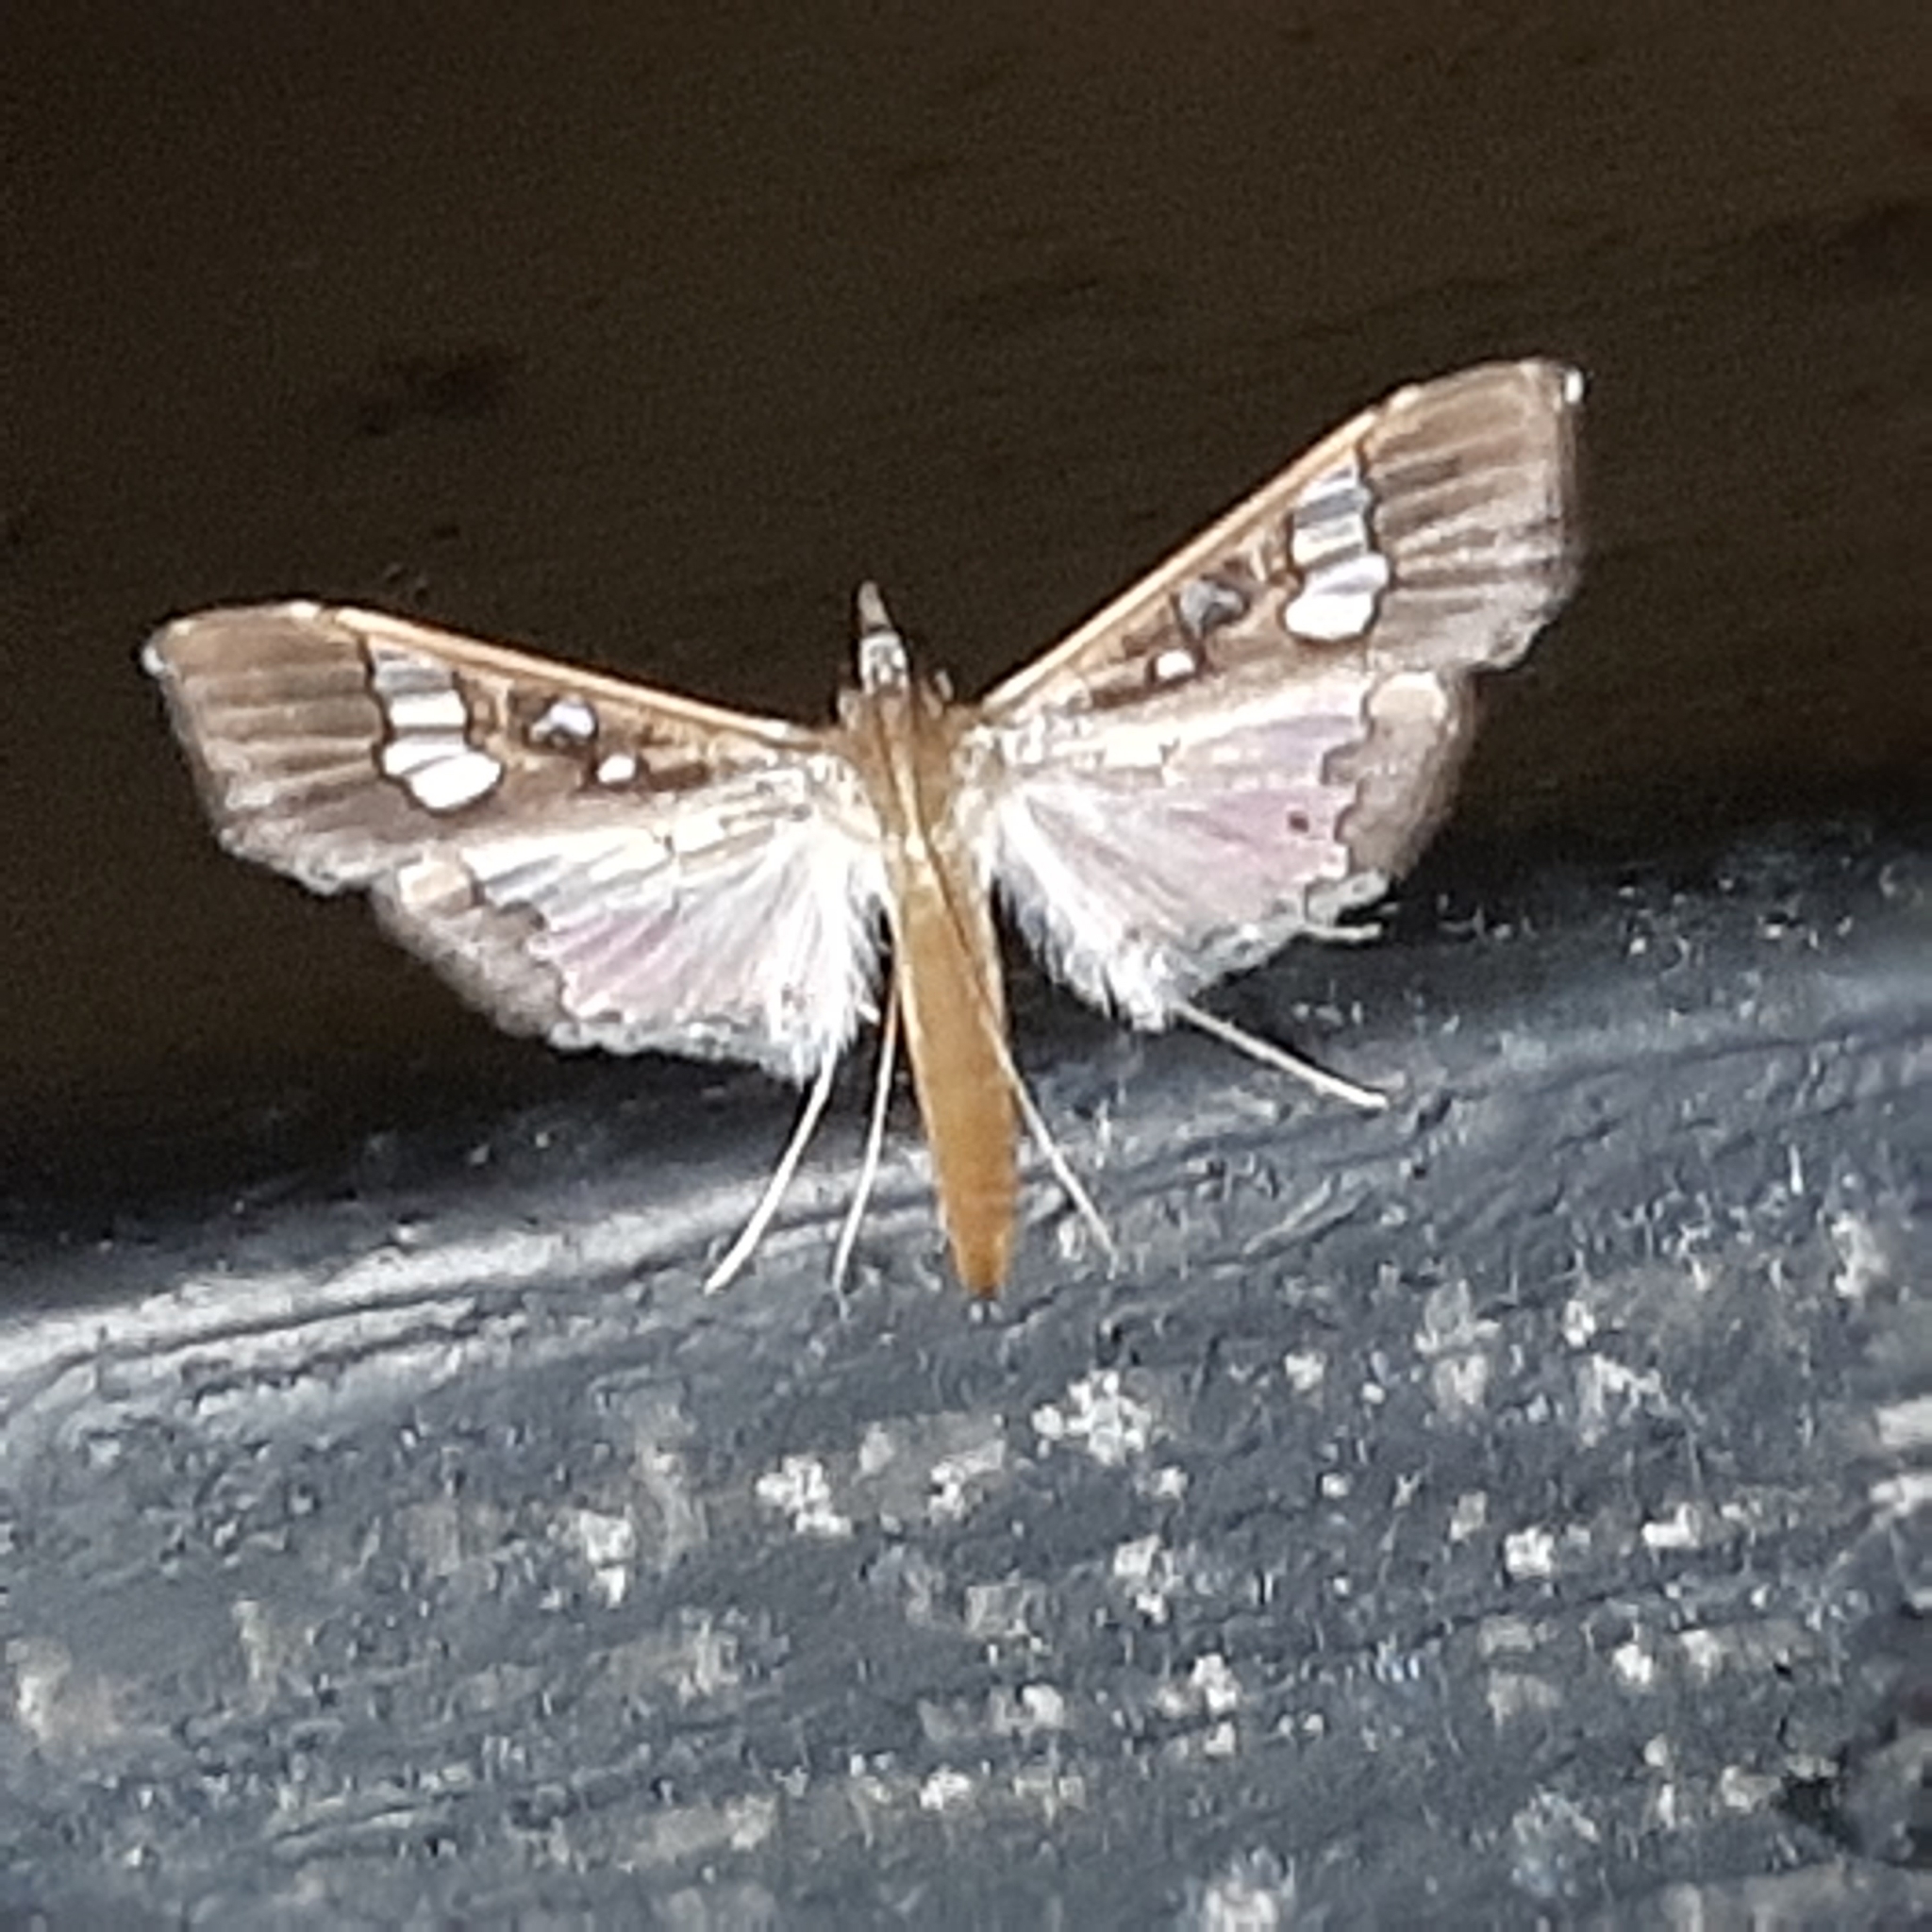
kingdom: Animalia
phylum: Arthropoda
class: Insecta
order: Lepidoptera
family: Crambidae
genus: Maruca
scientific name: Maruca vitrata
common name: Maruca pod borer
